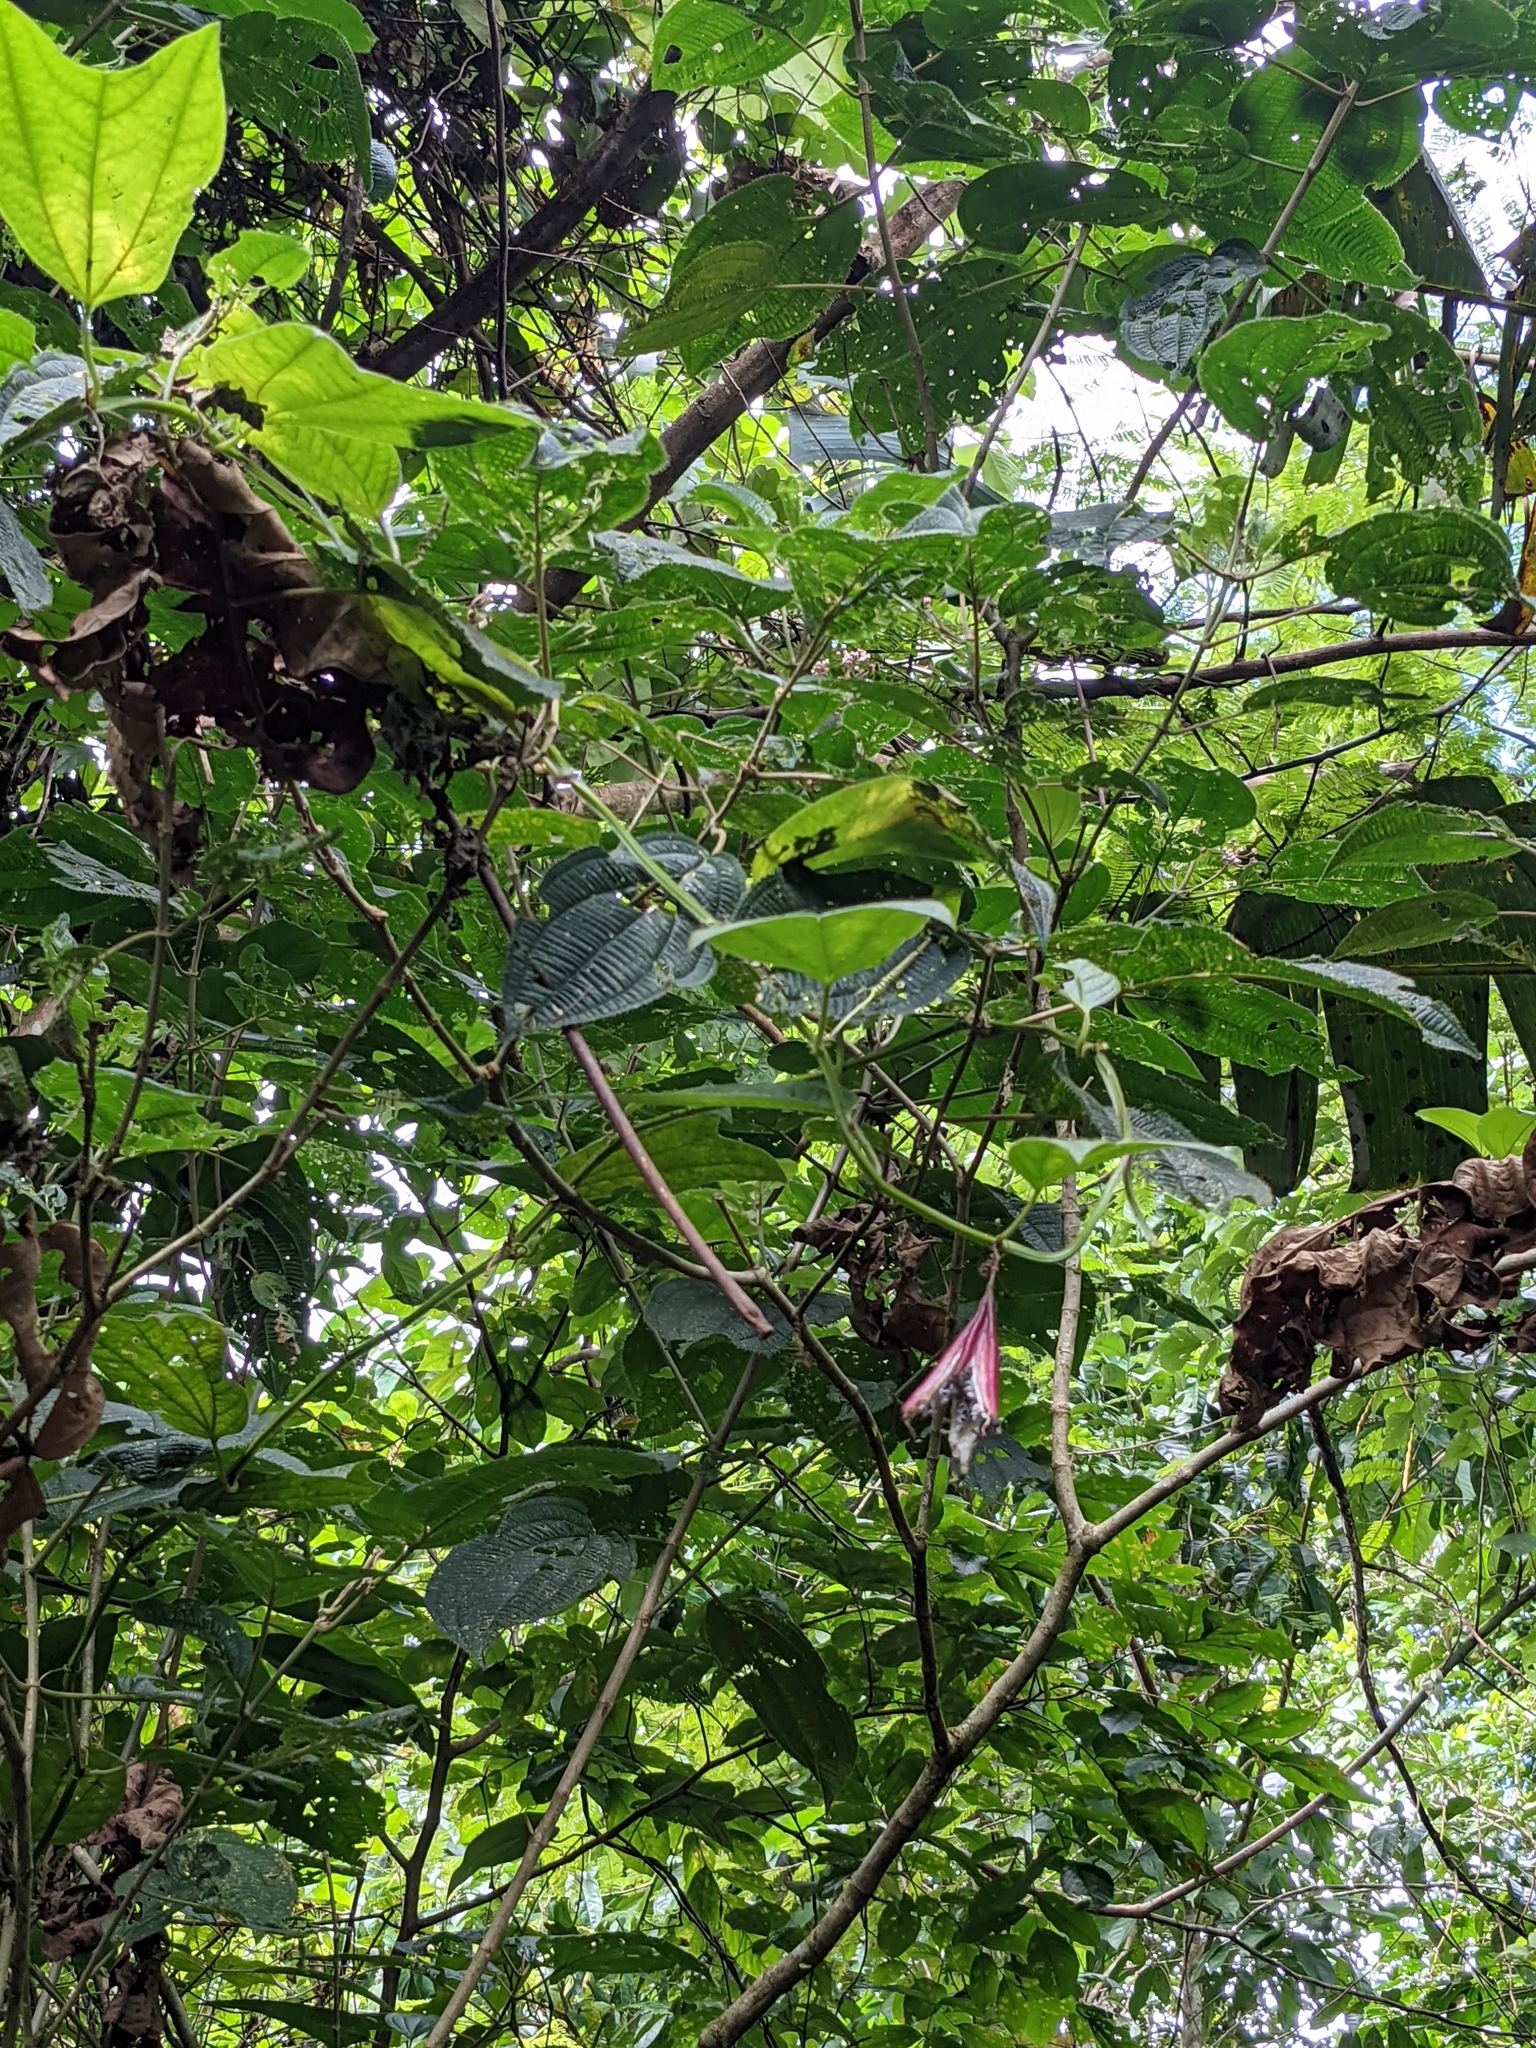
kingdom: Plantae
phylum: Tracheophyta
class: Magnoliopsida
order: Malpighiales
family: Passifloraceae
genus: Passiflora
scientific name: Passiflora costaricensis
